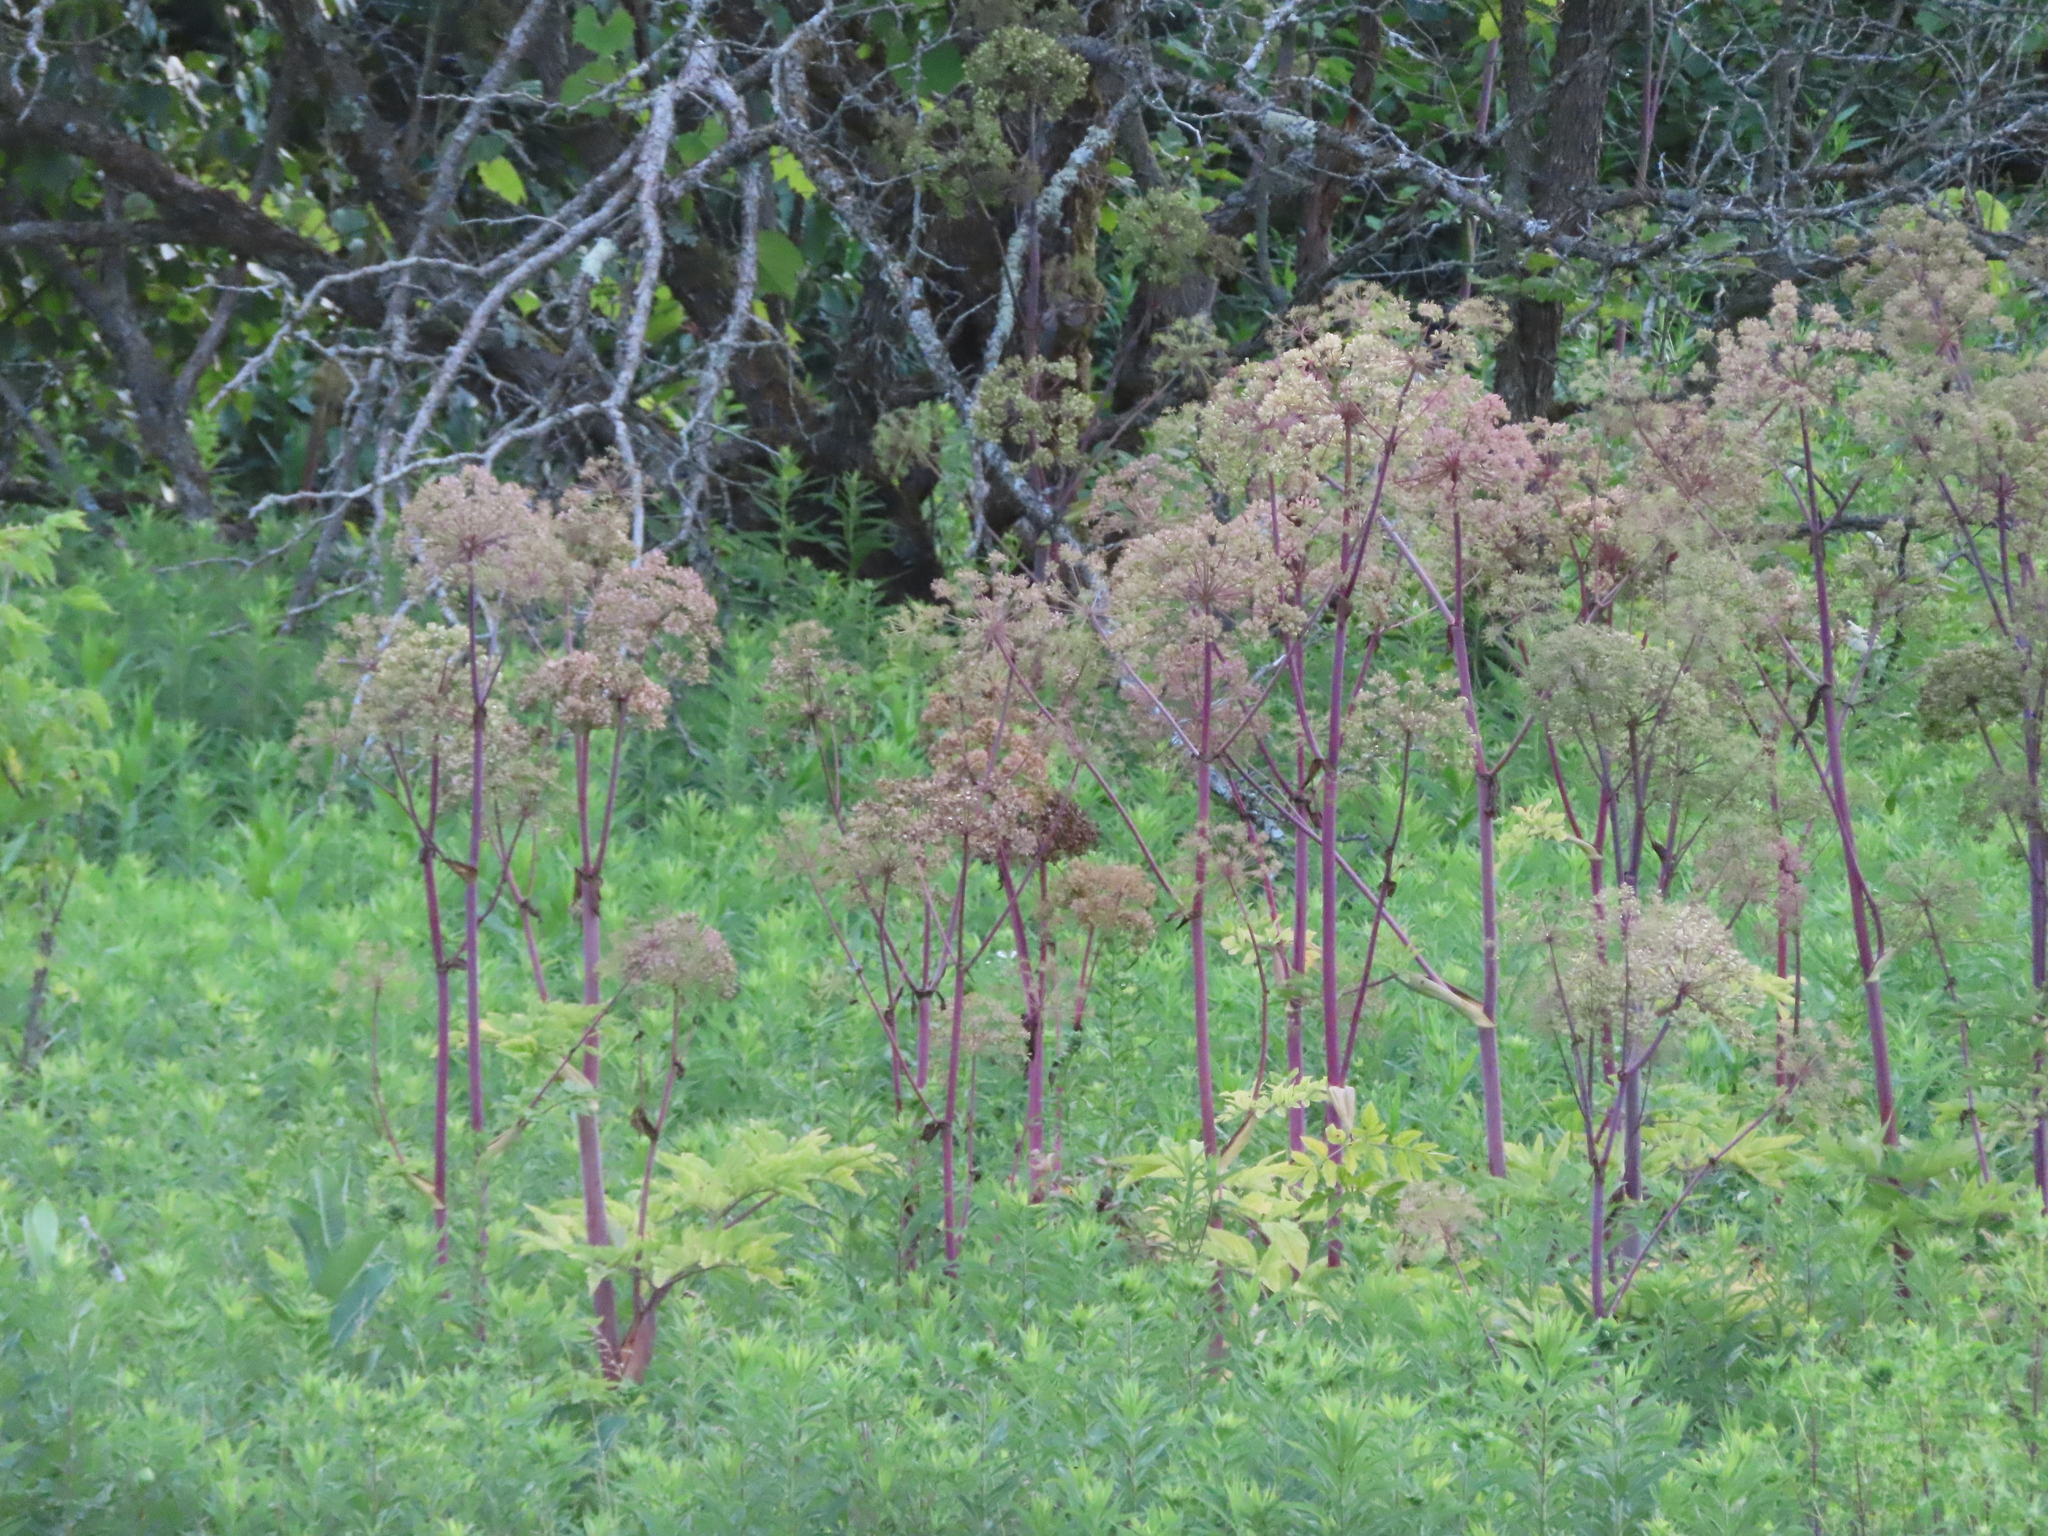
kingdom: Plantae
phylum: Tracheophyta
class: Magnoliopsida
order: Apiales
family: Apiaceae
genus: Angelica
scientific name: Angelica atropurpurea
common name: Great angelica
